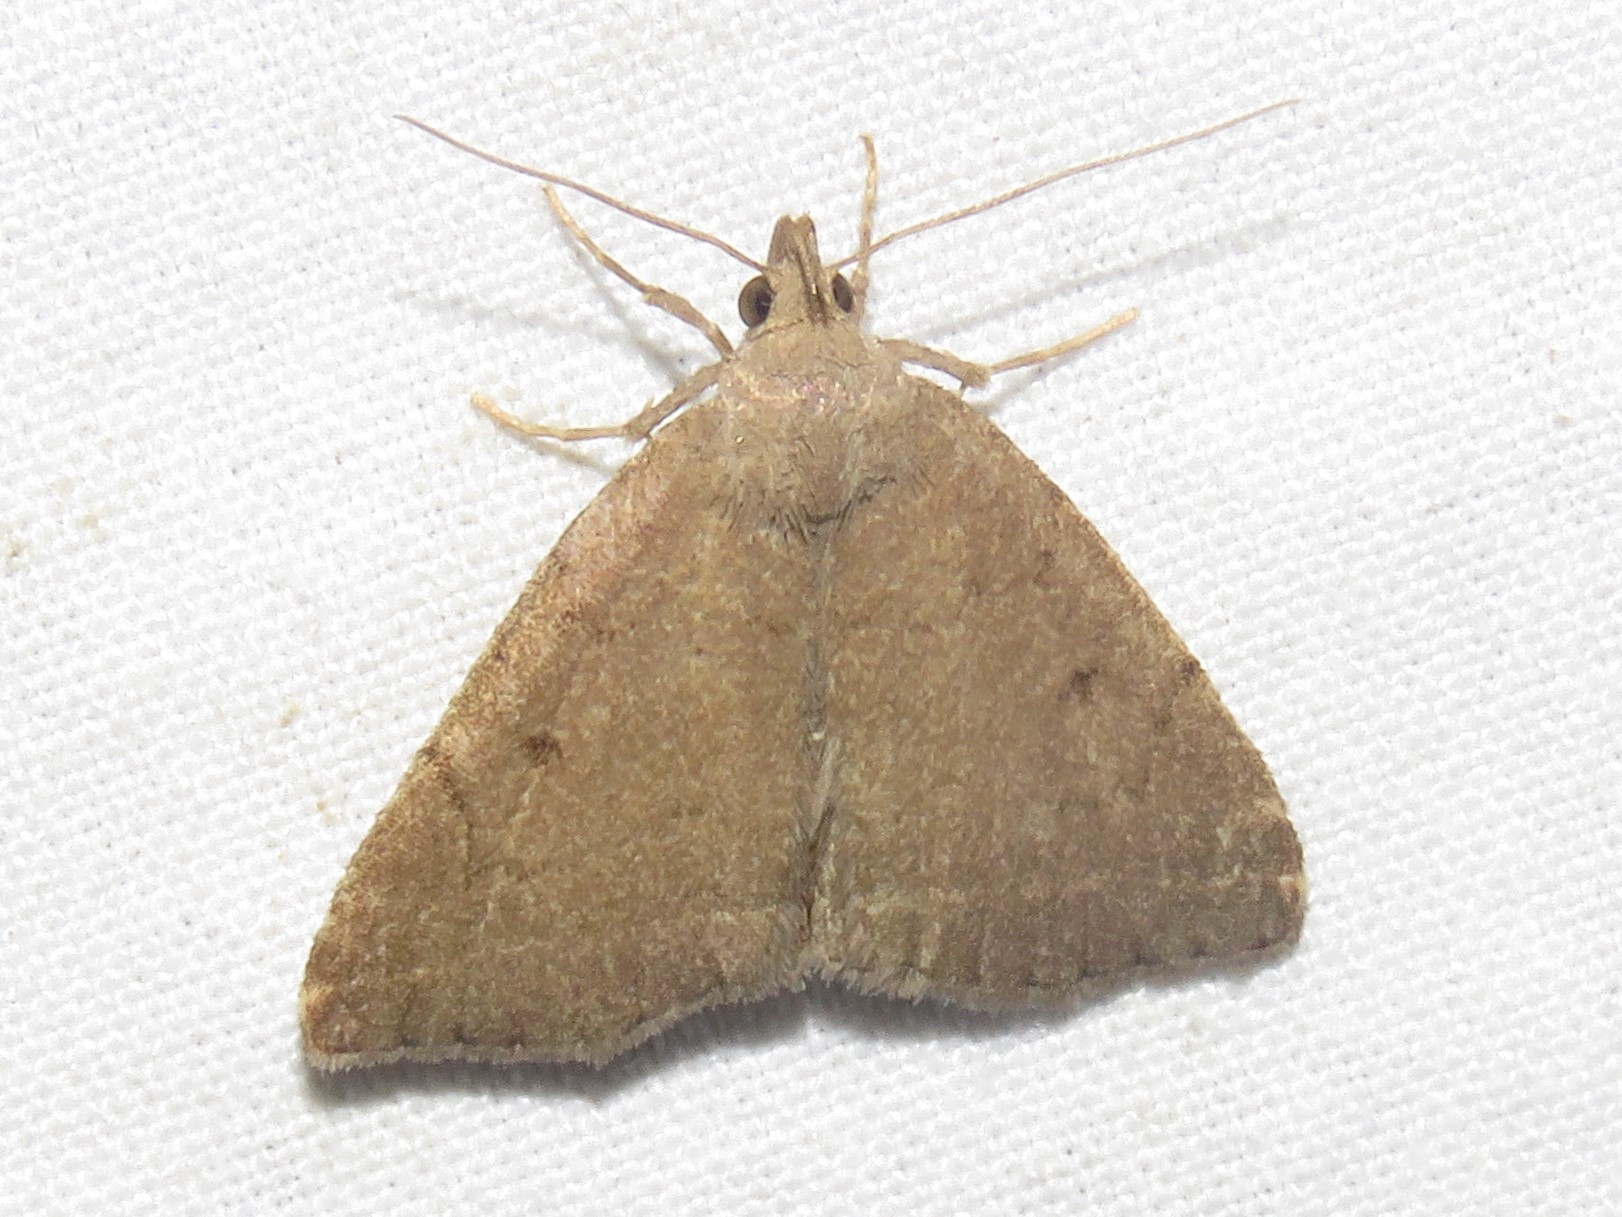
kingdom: Animalia
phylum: Arthropoda
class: Insecta
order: Lepidoptera
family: Erebidae
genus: Zanclognatha
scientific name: Zanclognatha protumnusalis
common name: Complex fan-foot
